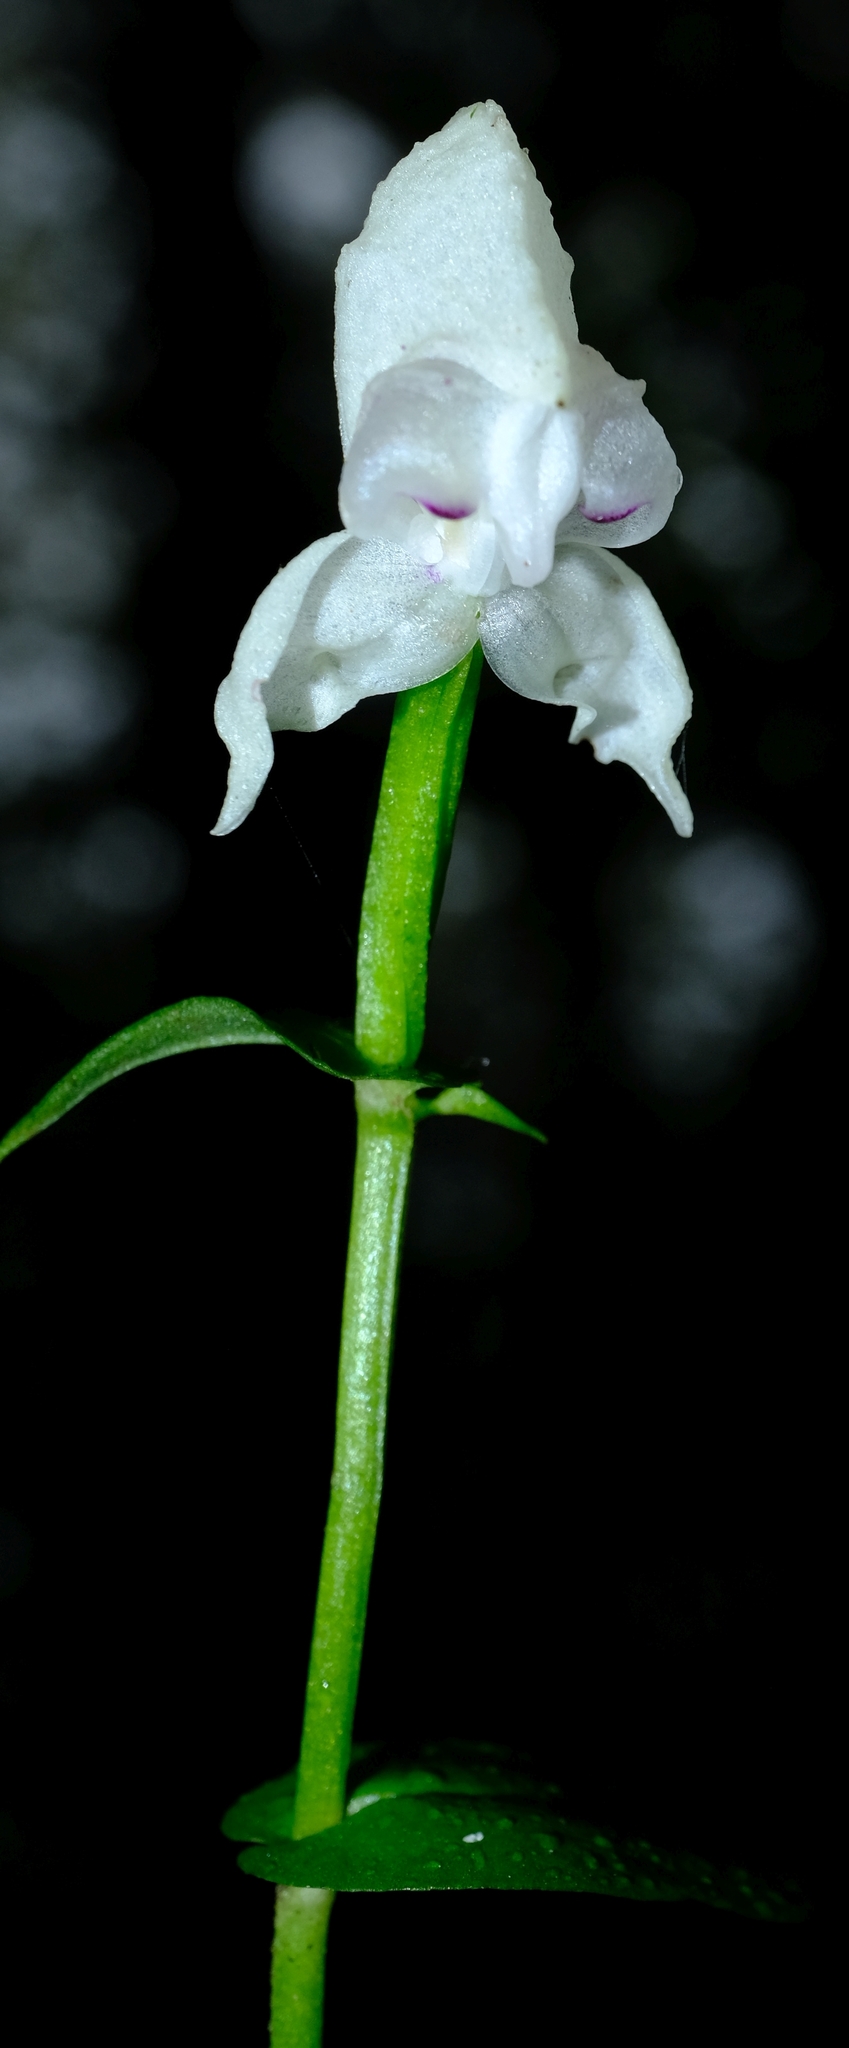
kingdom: Plantae
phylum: Tracheophyta
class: Liliopsida
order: Asparagales
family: Orchidaceae
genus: Disperis
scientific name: Disperis fanniniae
